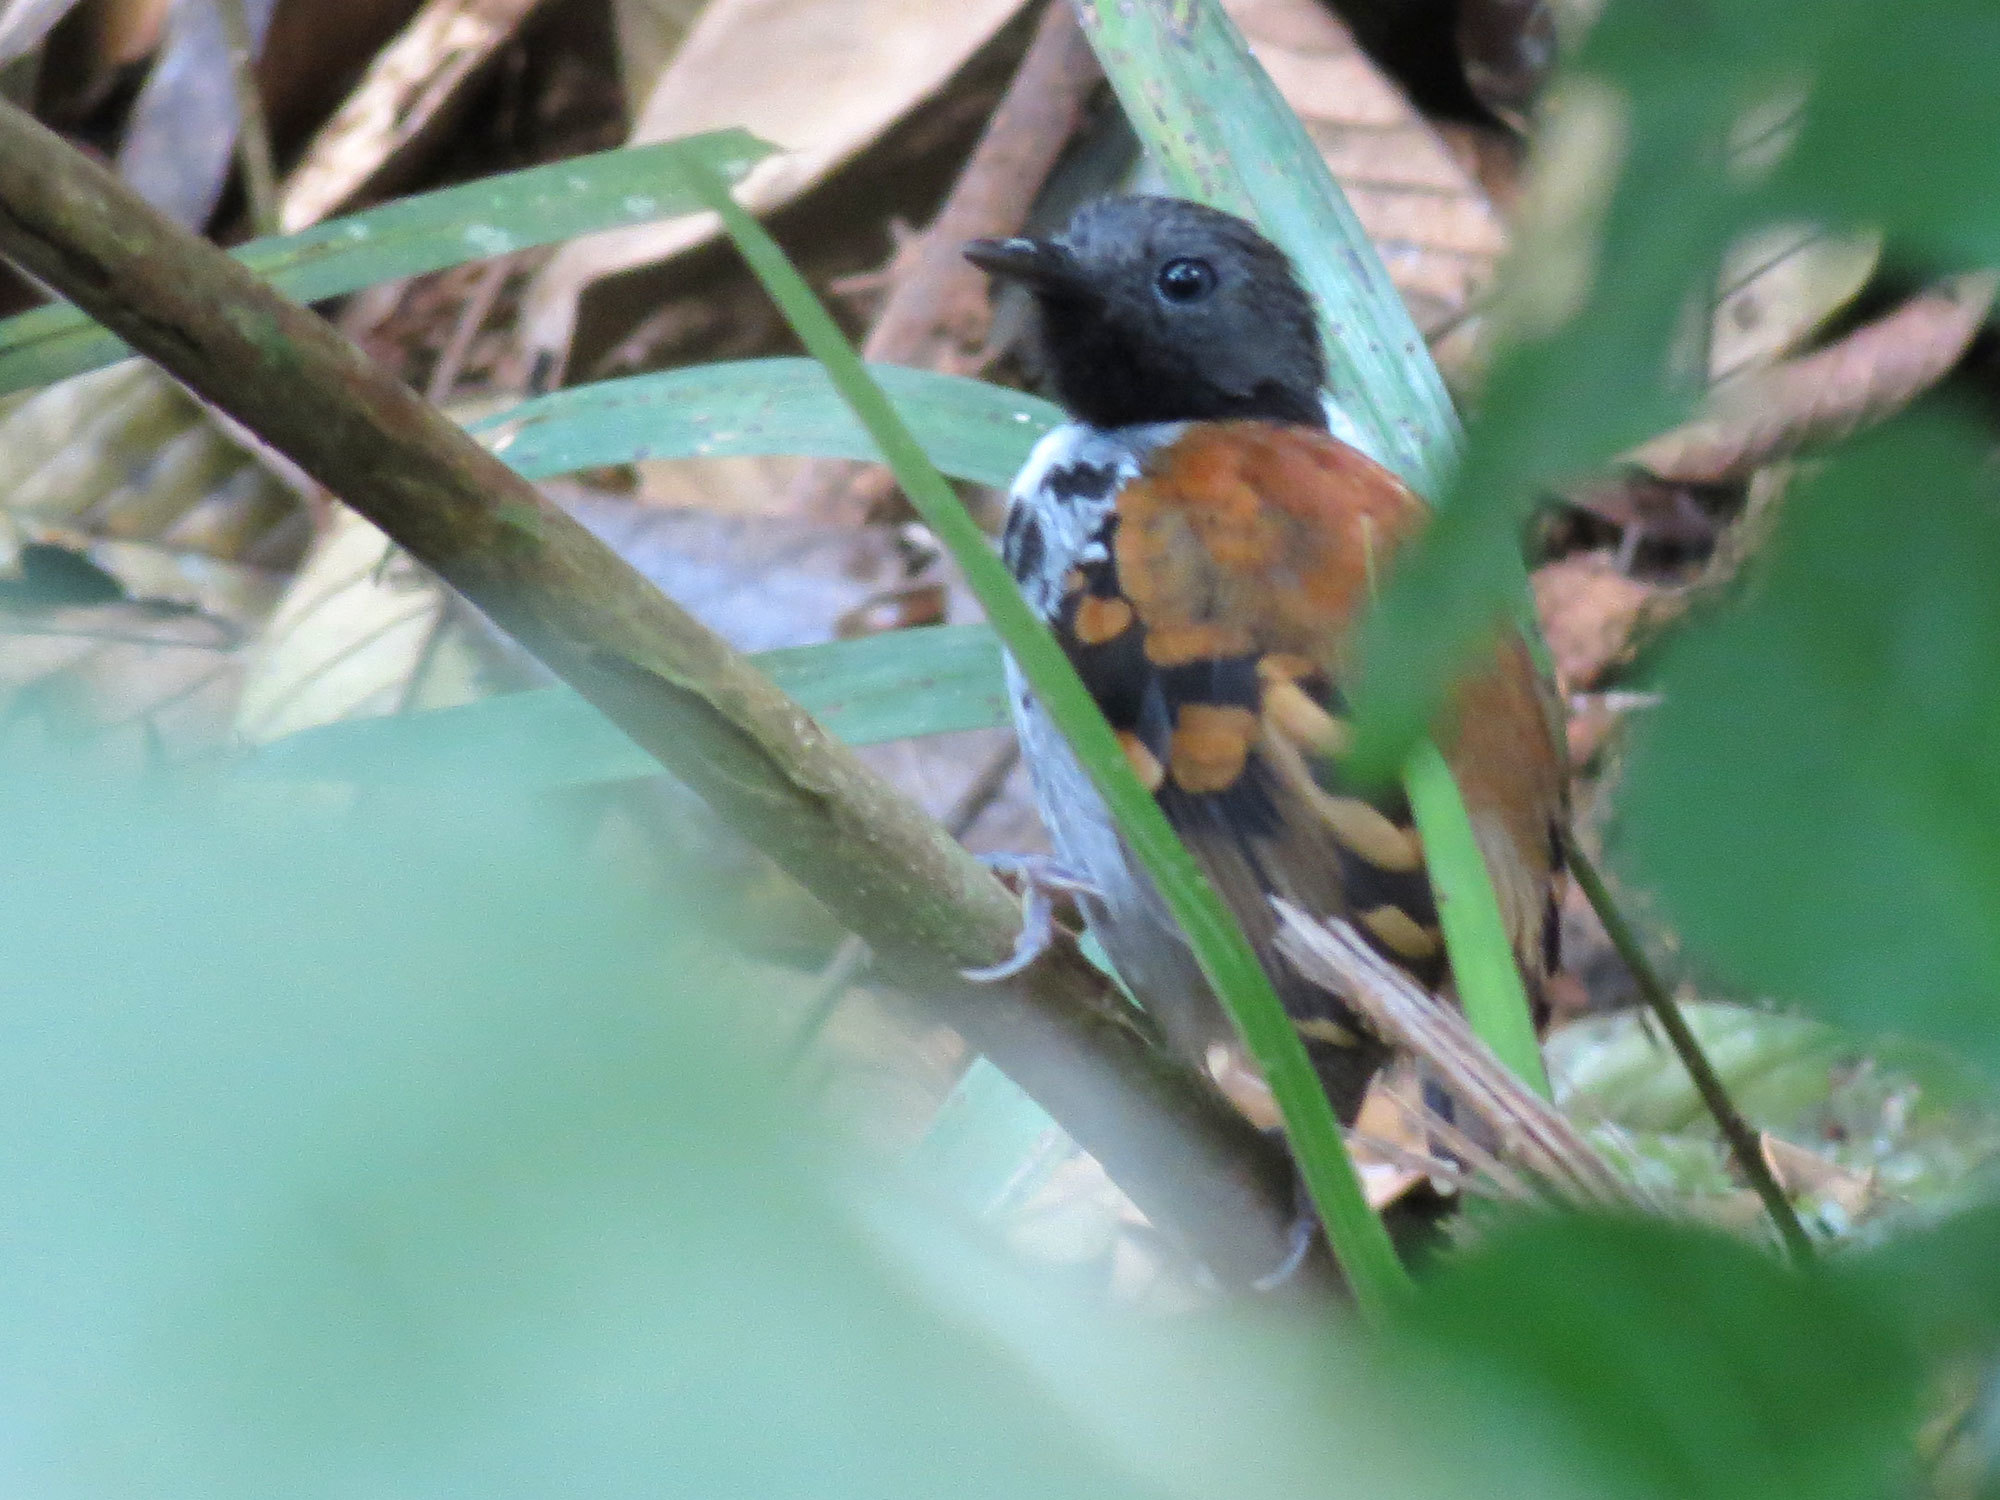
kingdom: Animalia
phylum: Chordata
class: Aves
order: Passeriformes
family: Thamnophilidae
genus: Hylophylax
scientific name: Hylophylax naevioides
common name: Spotted antbird
